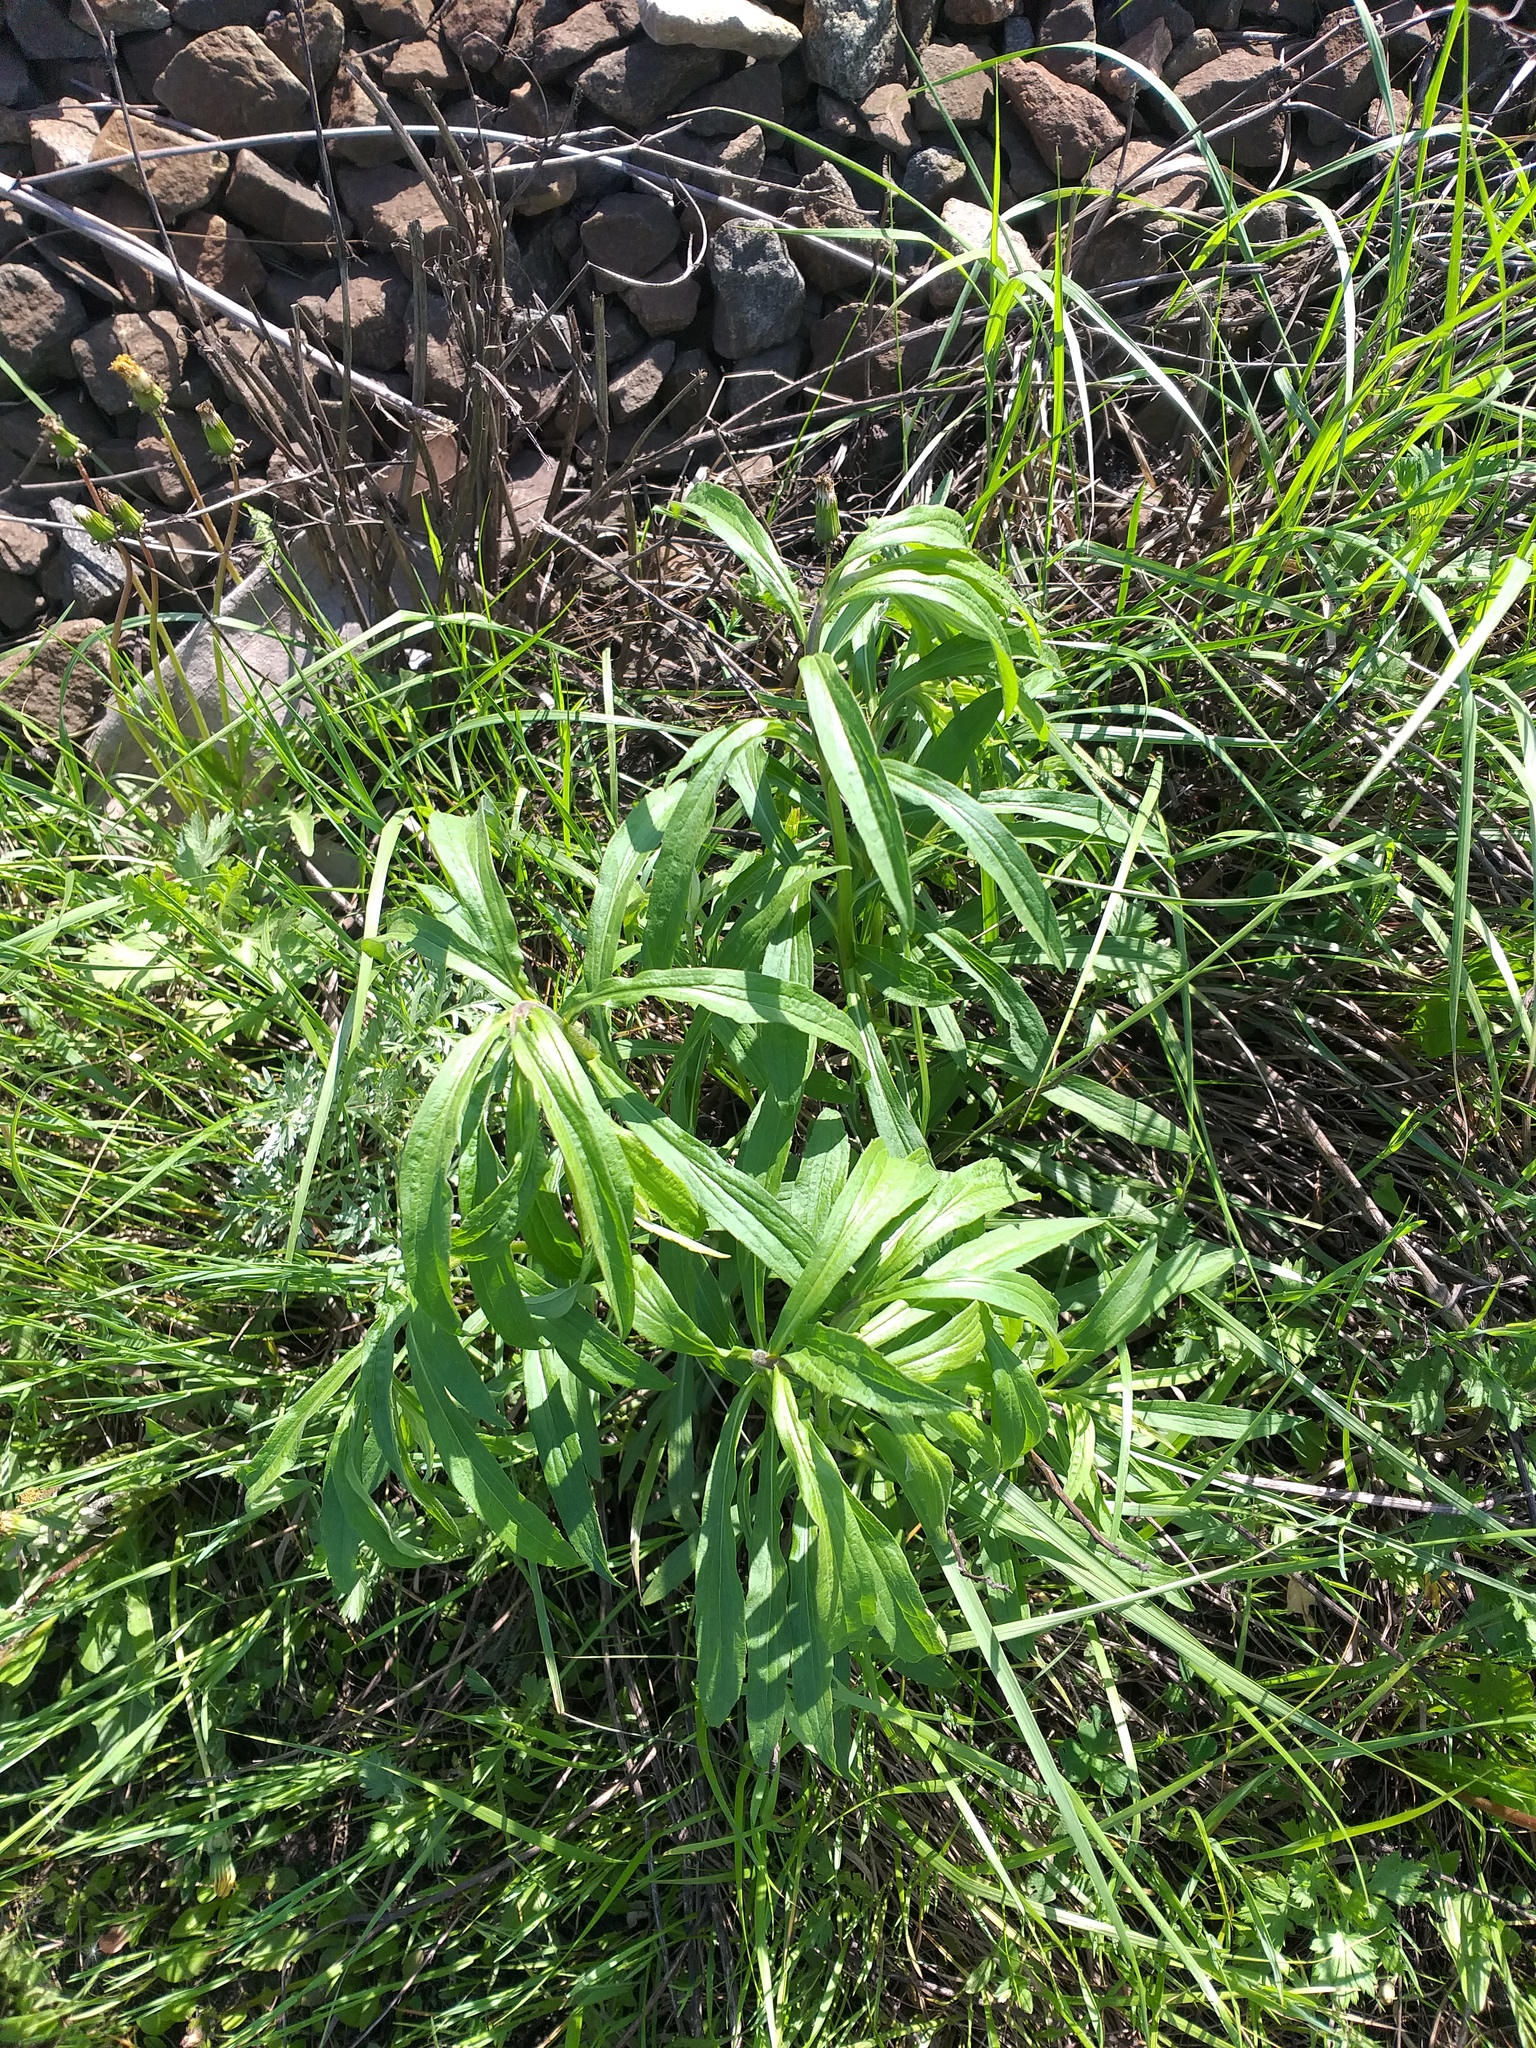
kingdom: Plantae
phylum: Tracheophyta
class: Magnoliopsida
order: Asterales
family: Asteraceae
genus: Solidago
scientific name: Solidago canadensis
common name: Canada goldenrod
